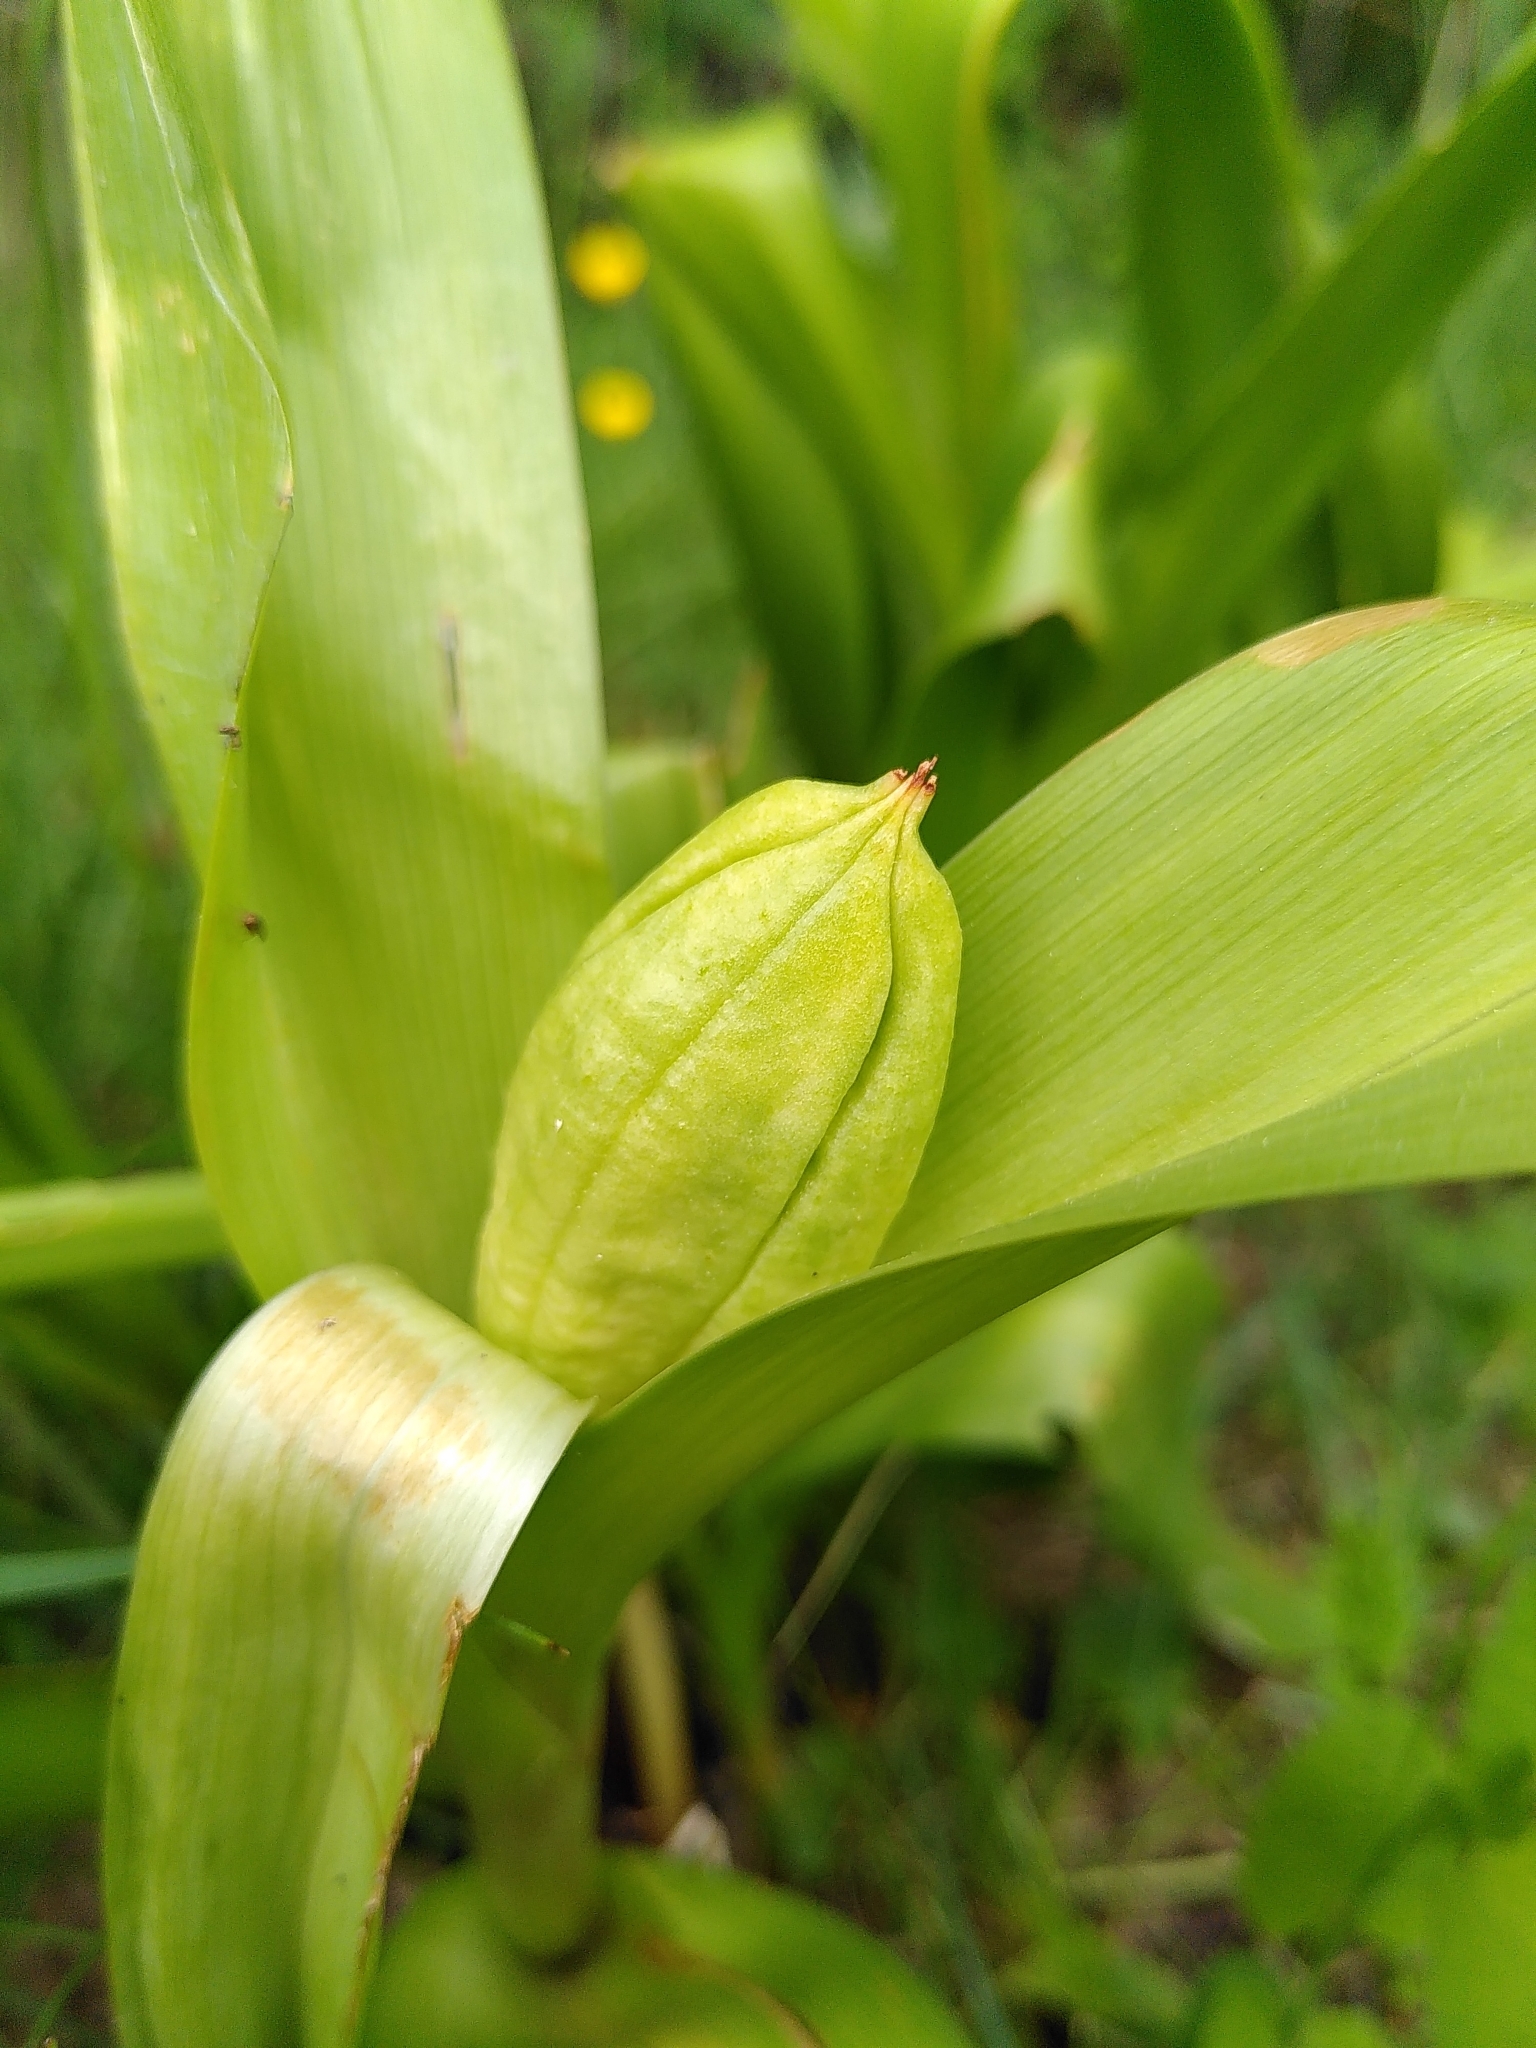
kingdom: Plantae
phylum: Tracheophyta
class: Liliopsida
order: Liliales
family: Colchicaceae
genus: Colchicum
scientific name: Colchicum autumnale
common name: Autumn crocus
